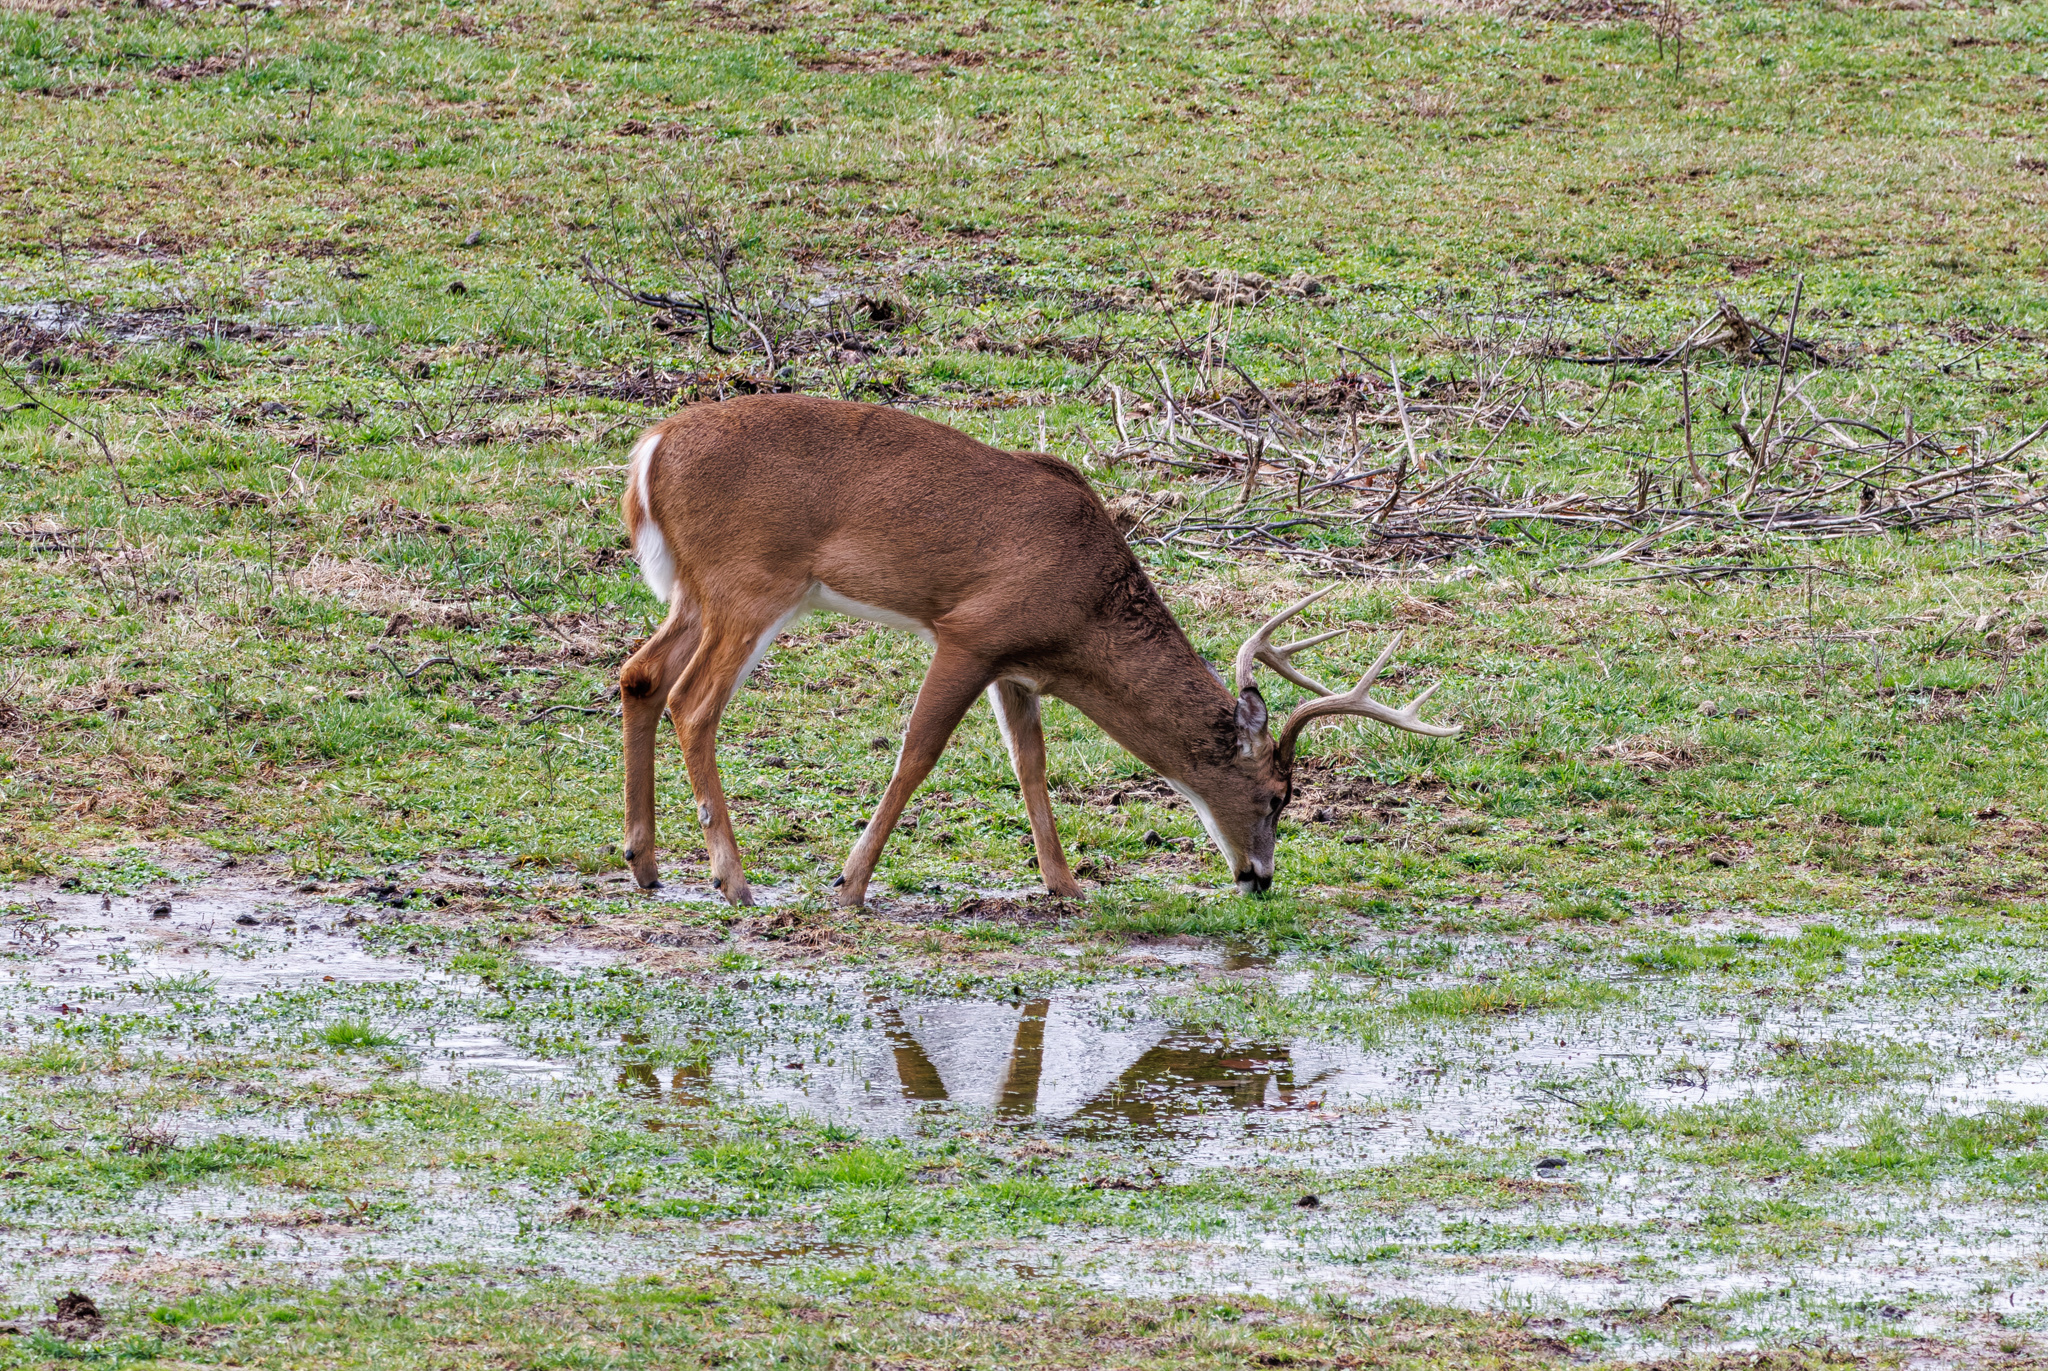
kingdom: Animalia
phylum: Chordata
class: Mammalia
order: Artiodactyla
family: Cervidae
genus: Odocoileus
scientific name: Odocoileus virginianus
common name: White-tailed deer
